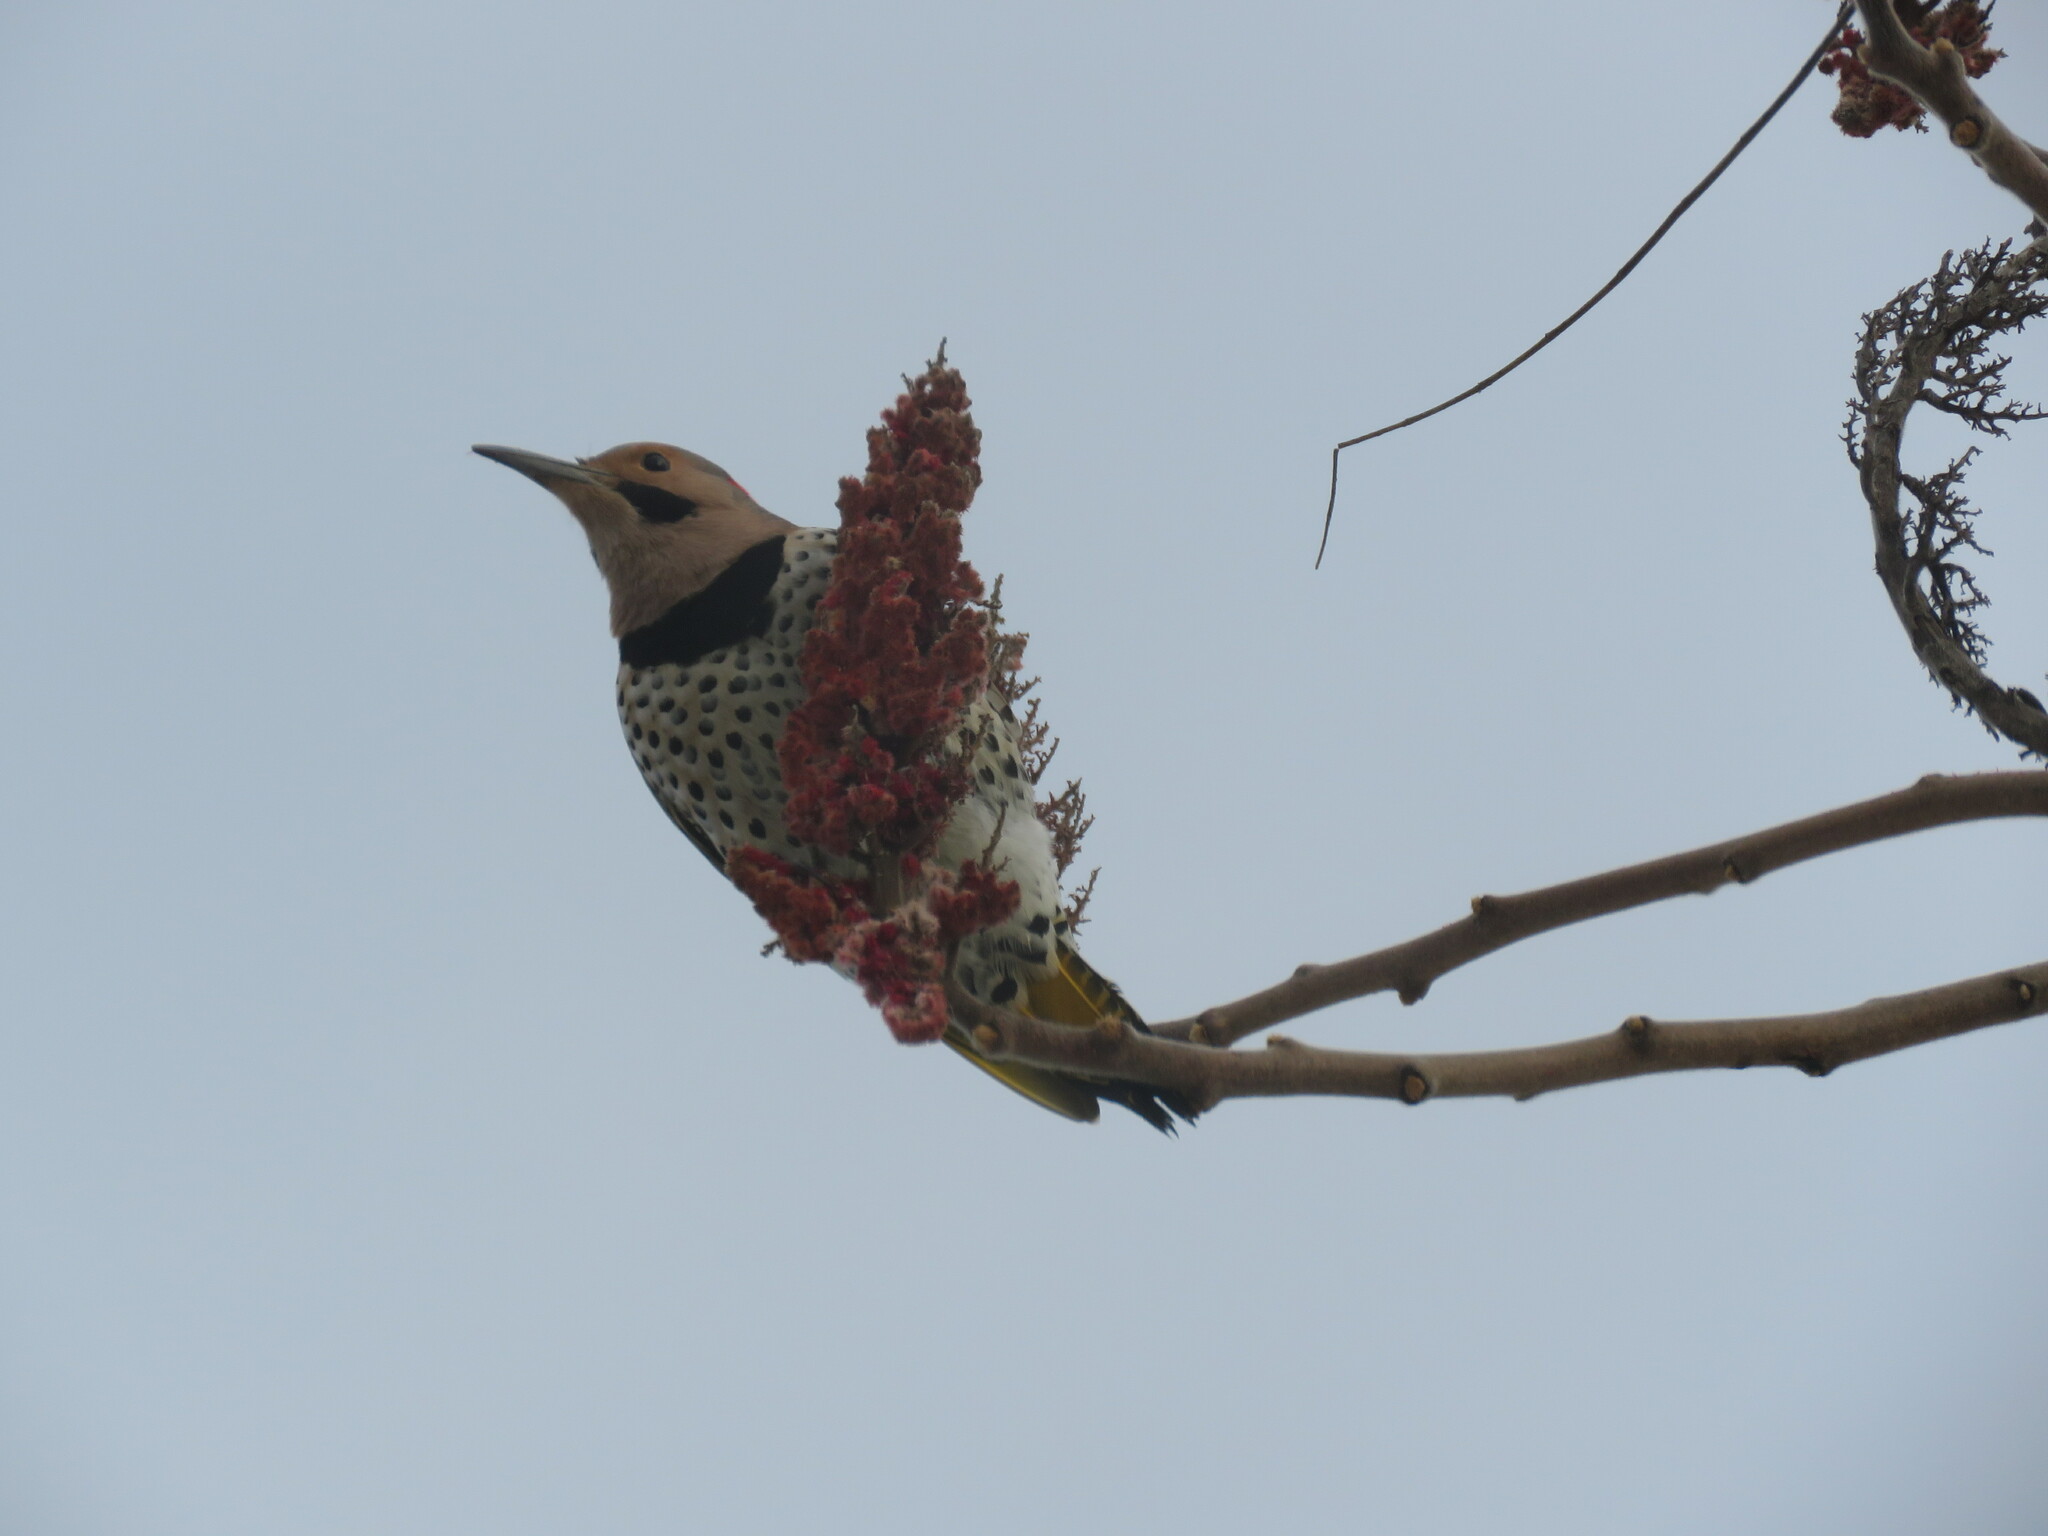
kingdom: Animalia
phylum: Chordata
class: Aves
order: Piciformes
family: Picidae
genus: Colaptes
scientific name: Colaptes auratus
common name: Northern flicker
